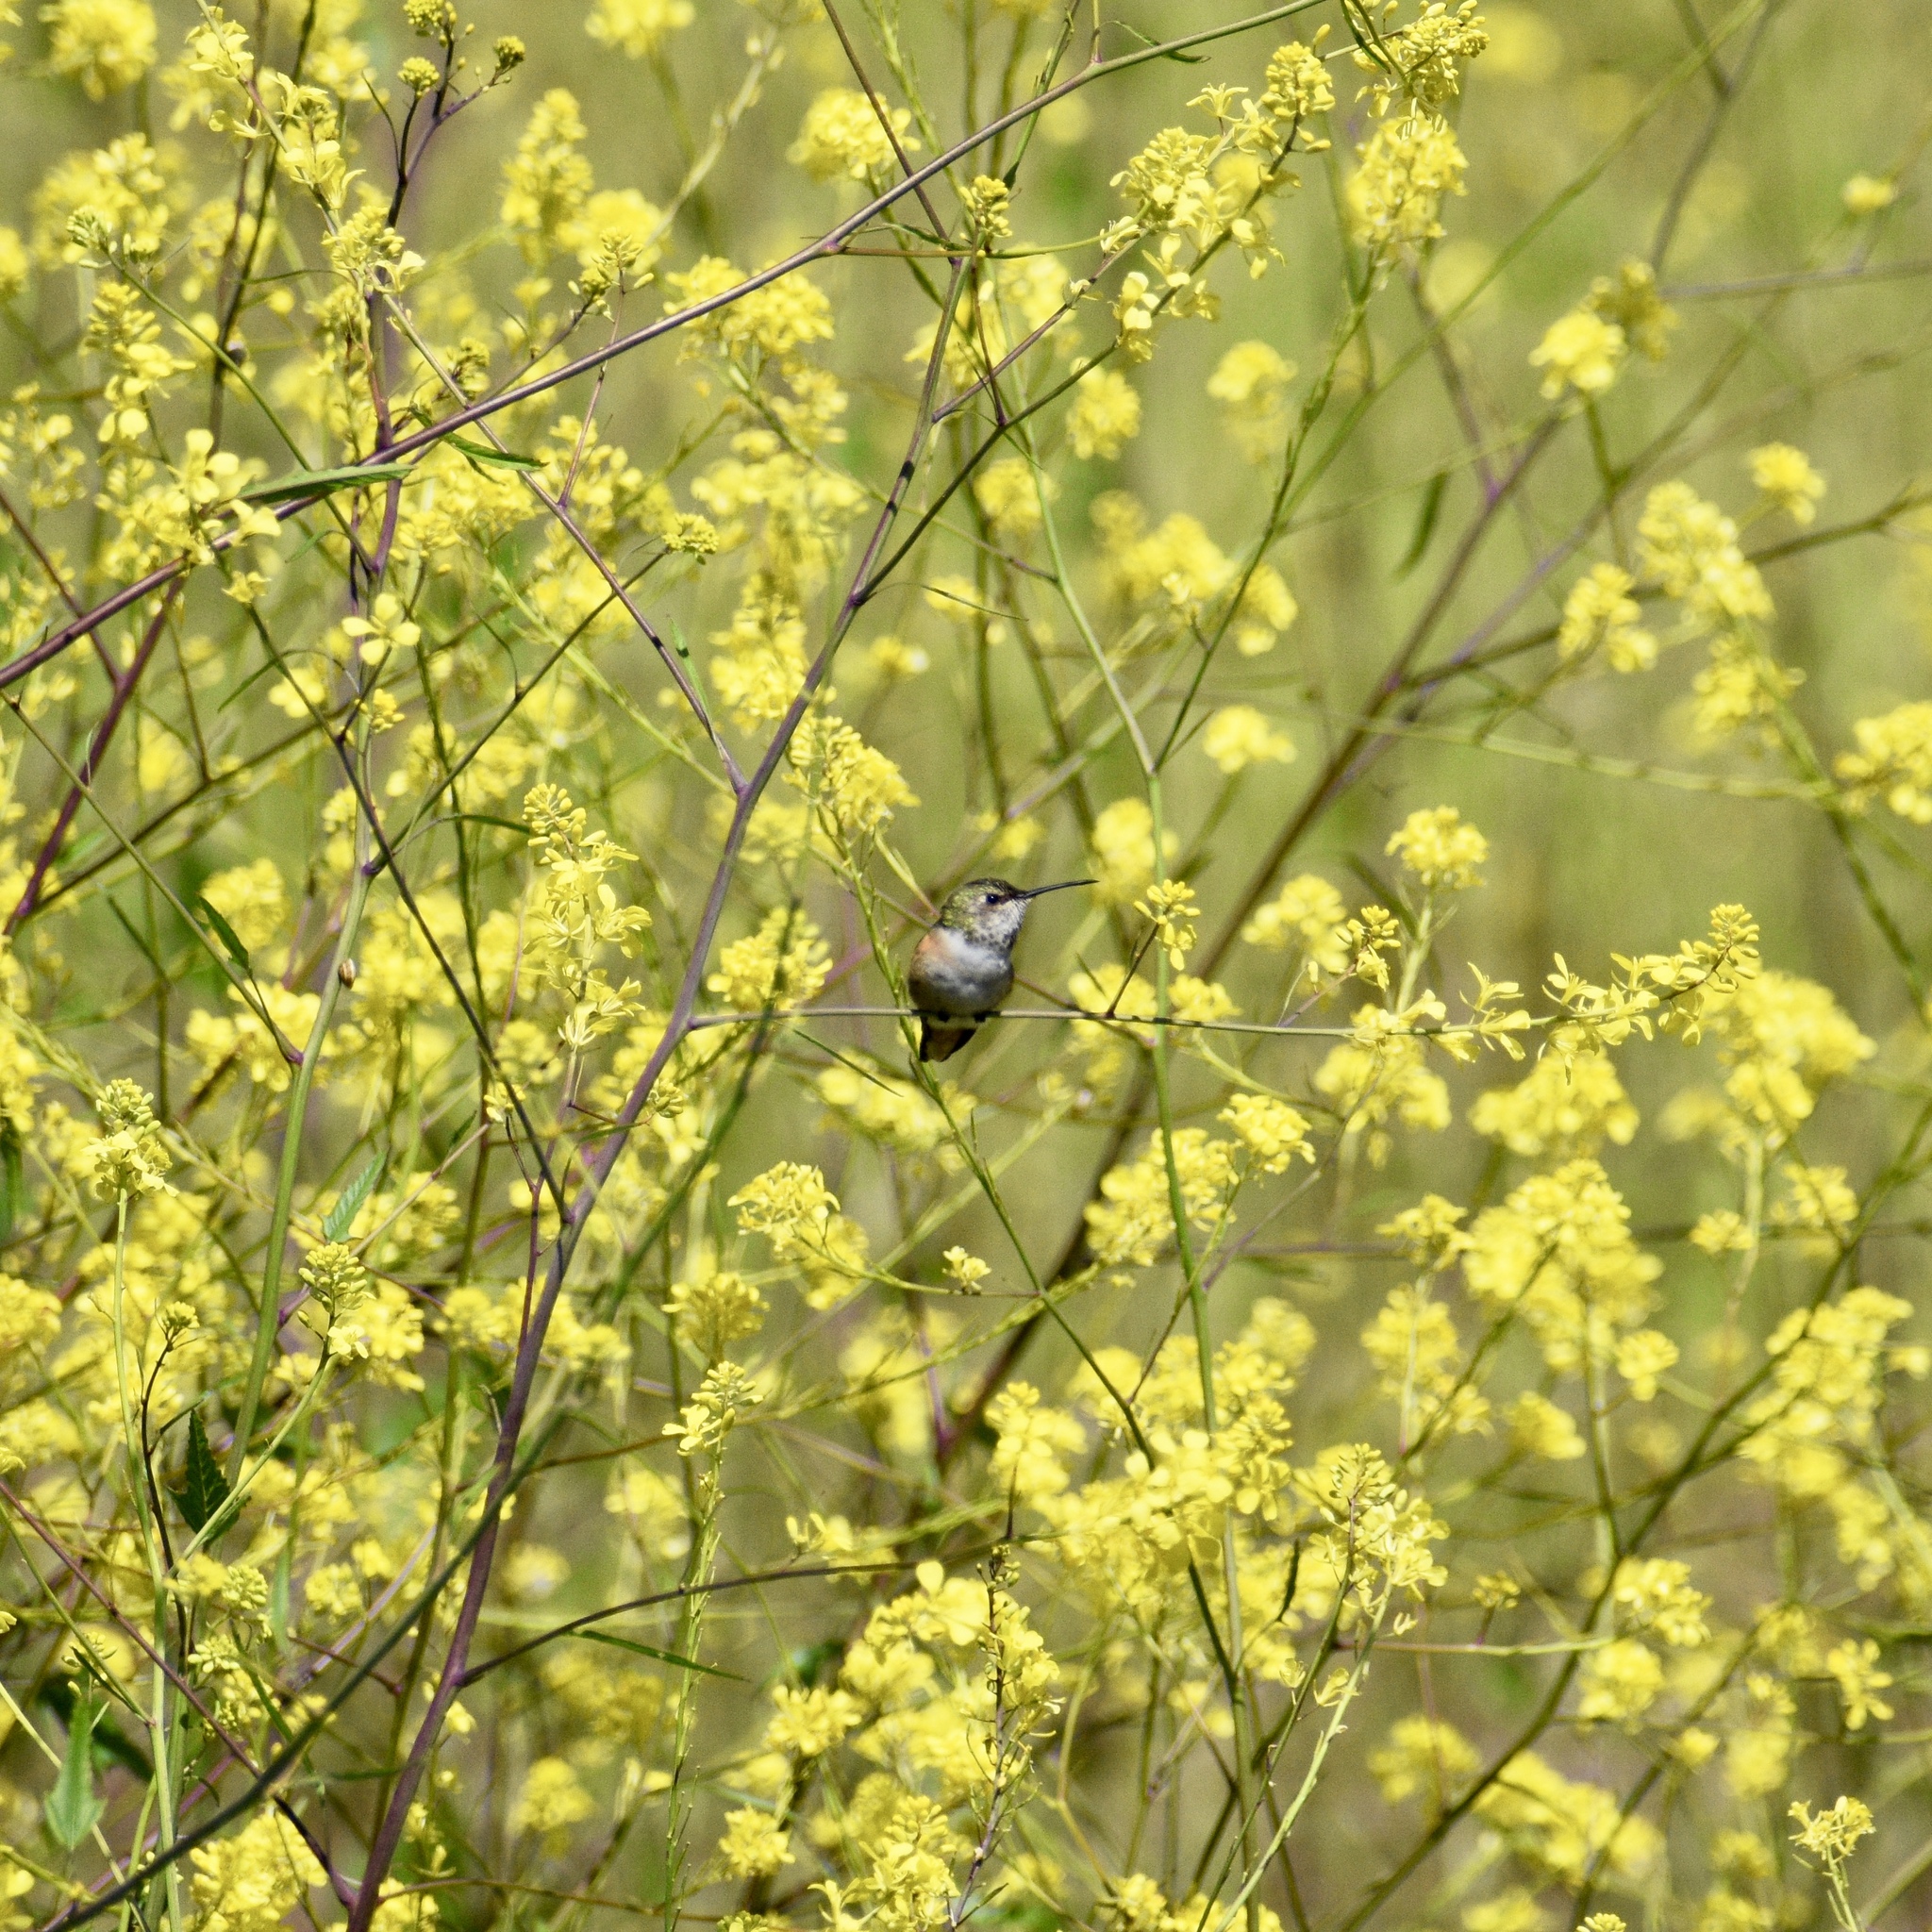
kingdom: Animalia
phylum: Chordata
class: Aves
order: Apodiformes
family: Trochilidae
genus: Selasphorus
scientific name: Selasphorus
